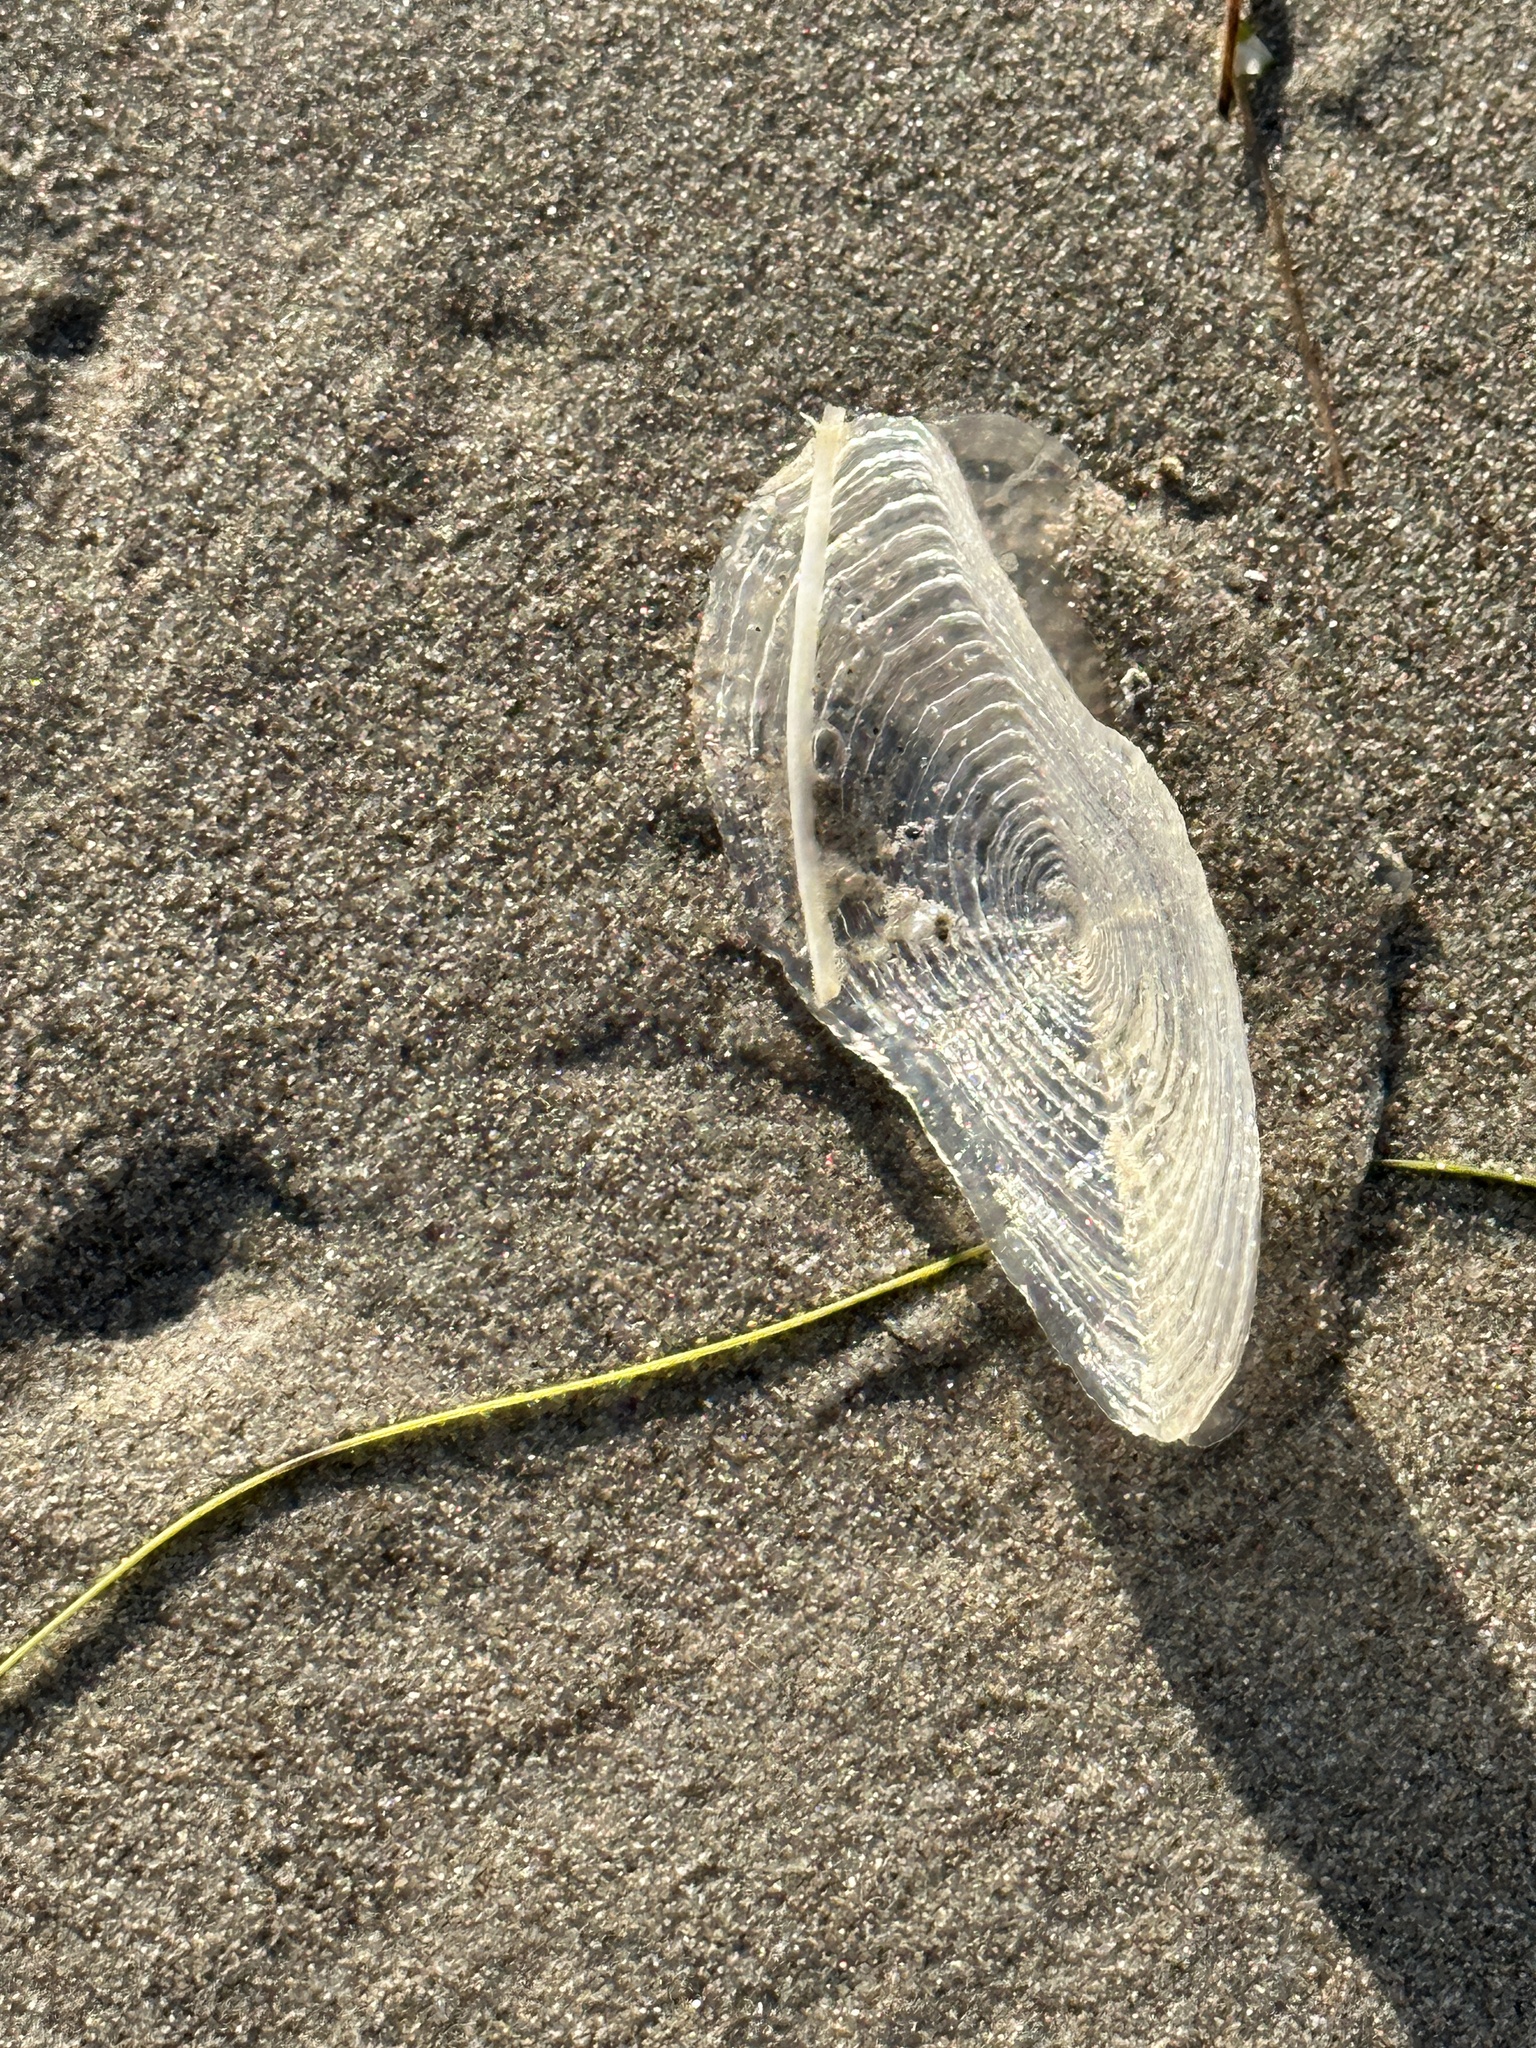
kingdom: Animalia
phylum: Cnidaria
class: Hydrozoa
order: Anthoathecata
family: Porpitidae
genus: Velella
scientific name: Velella velella
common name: By-the-wind-sailor
